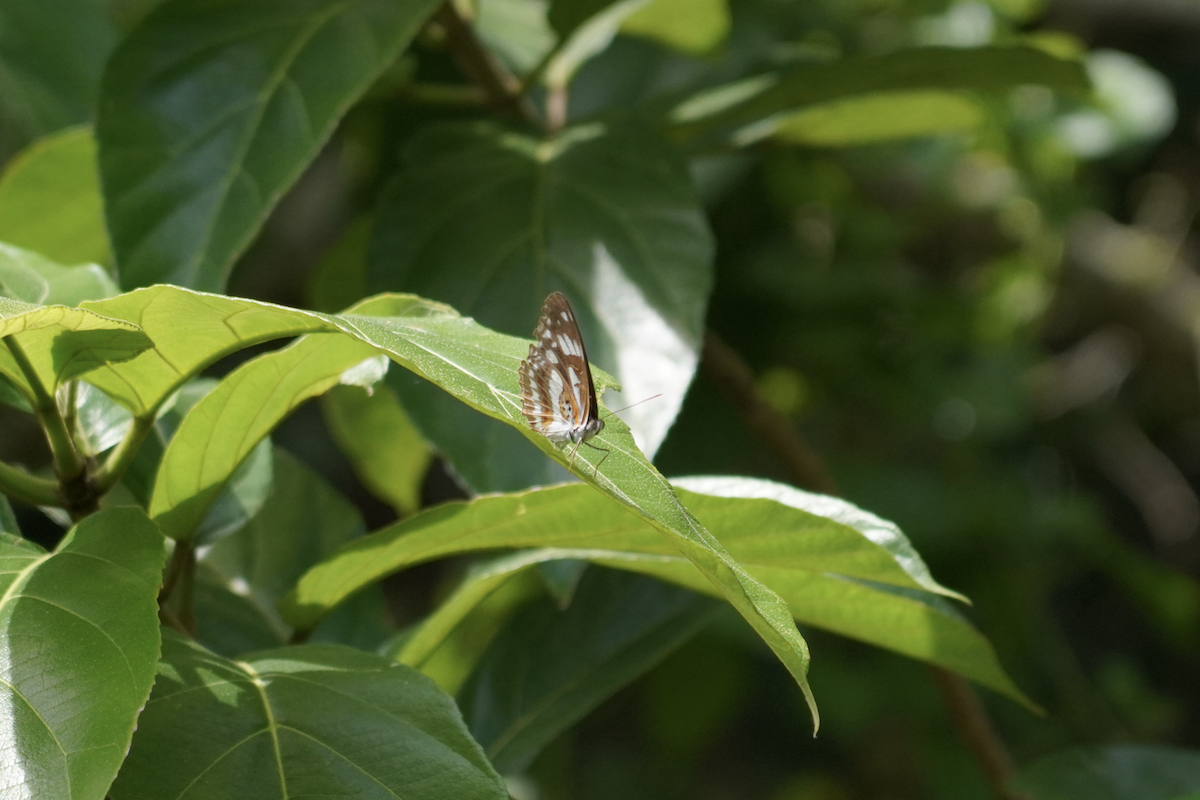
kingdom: Animalia
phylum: Arthropoda
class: Insecta
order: Lepidoptera
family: Nymphalidae
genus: Limenitis
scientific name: Limenitis sulpitia
